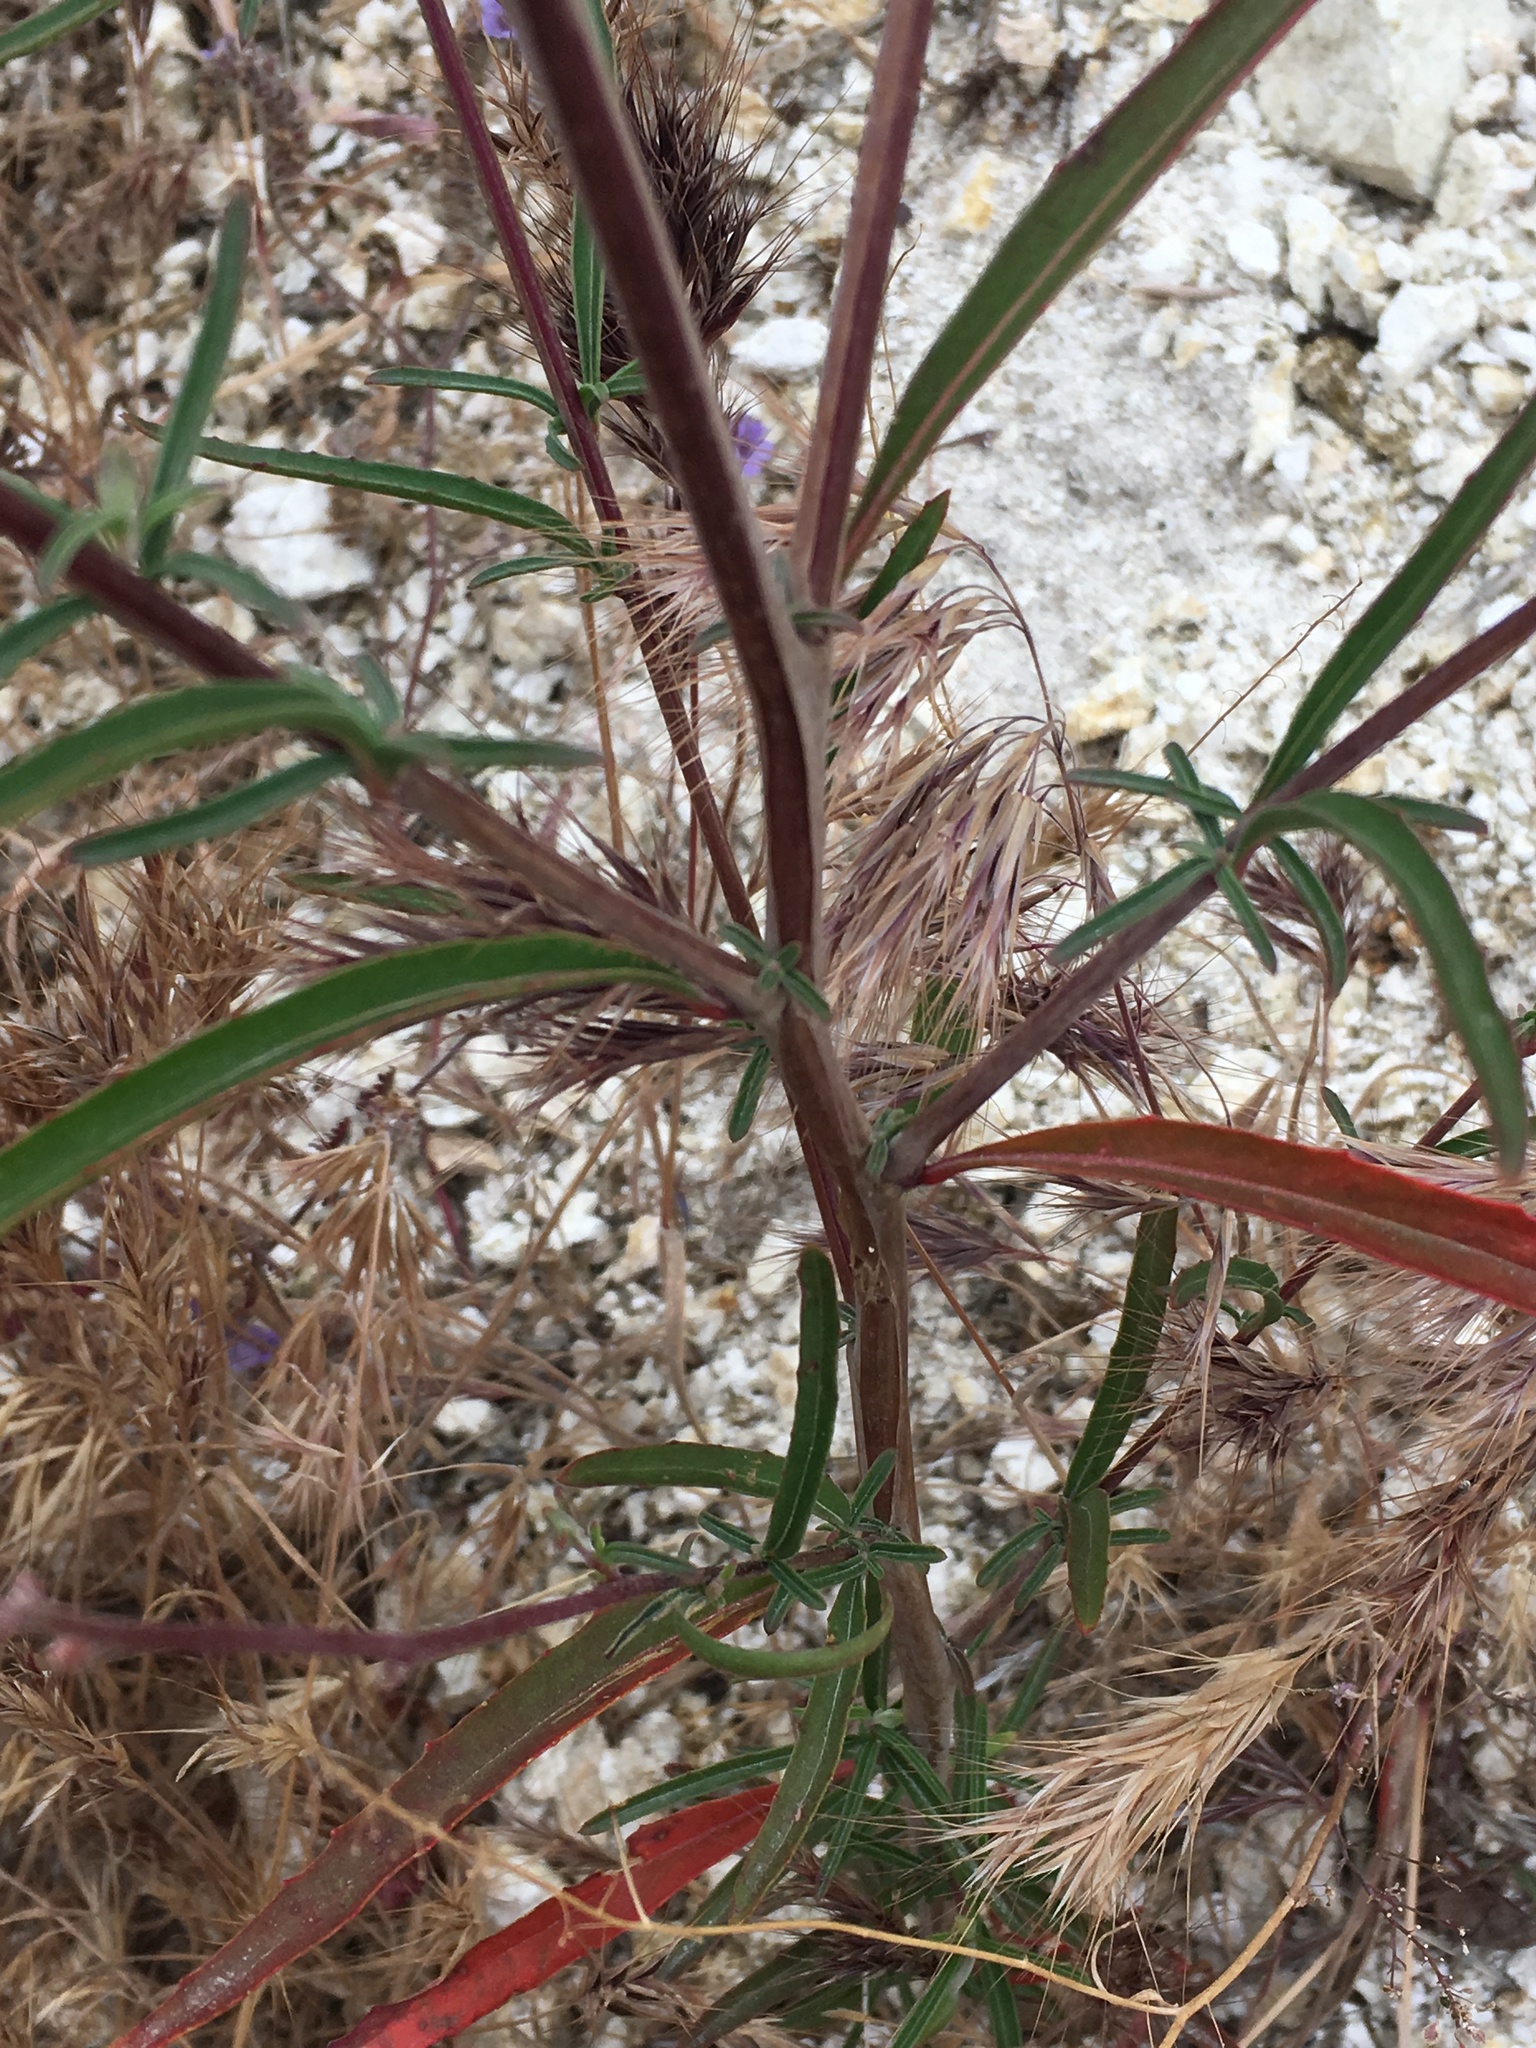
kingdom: Plantae
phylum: Tracheophyta
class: Magnoliopsida
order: Myrtales
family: Onagraceae
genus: Clarkia
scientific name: Clarkia bottae
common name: Punch-bowl godetia
